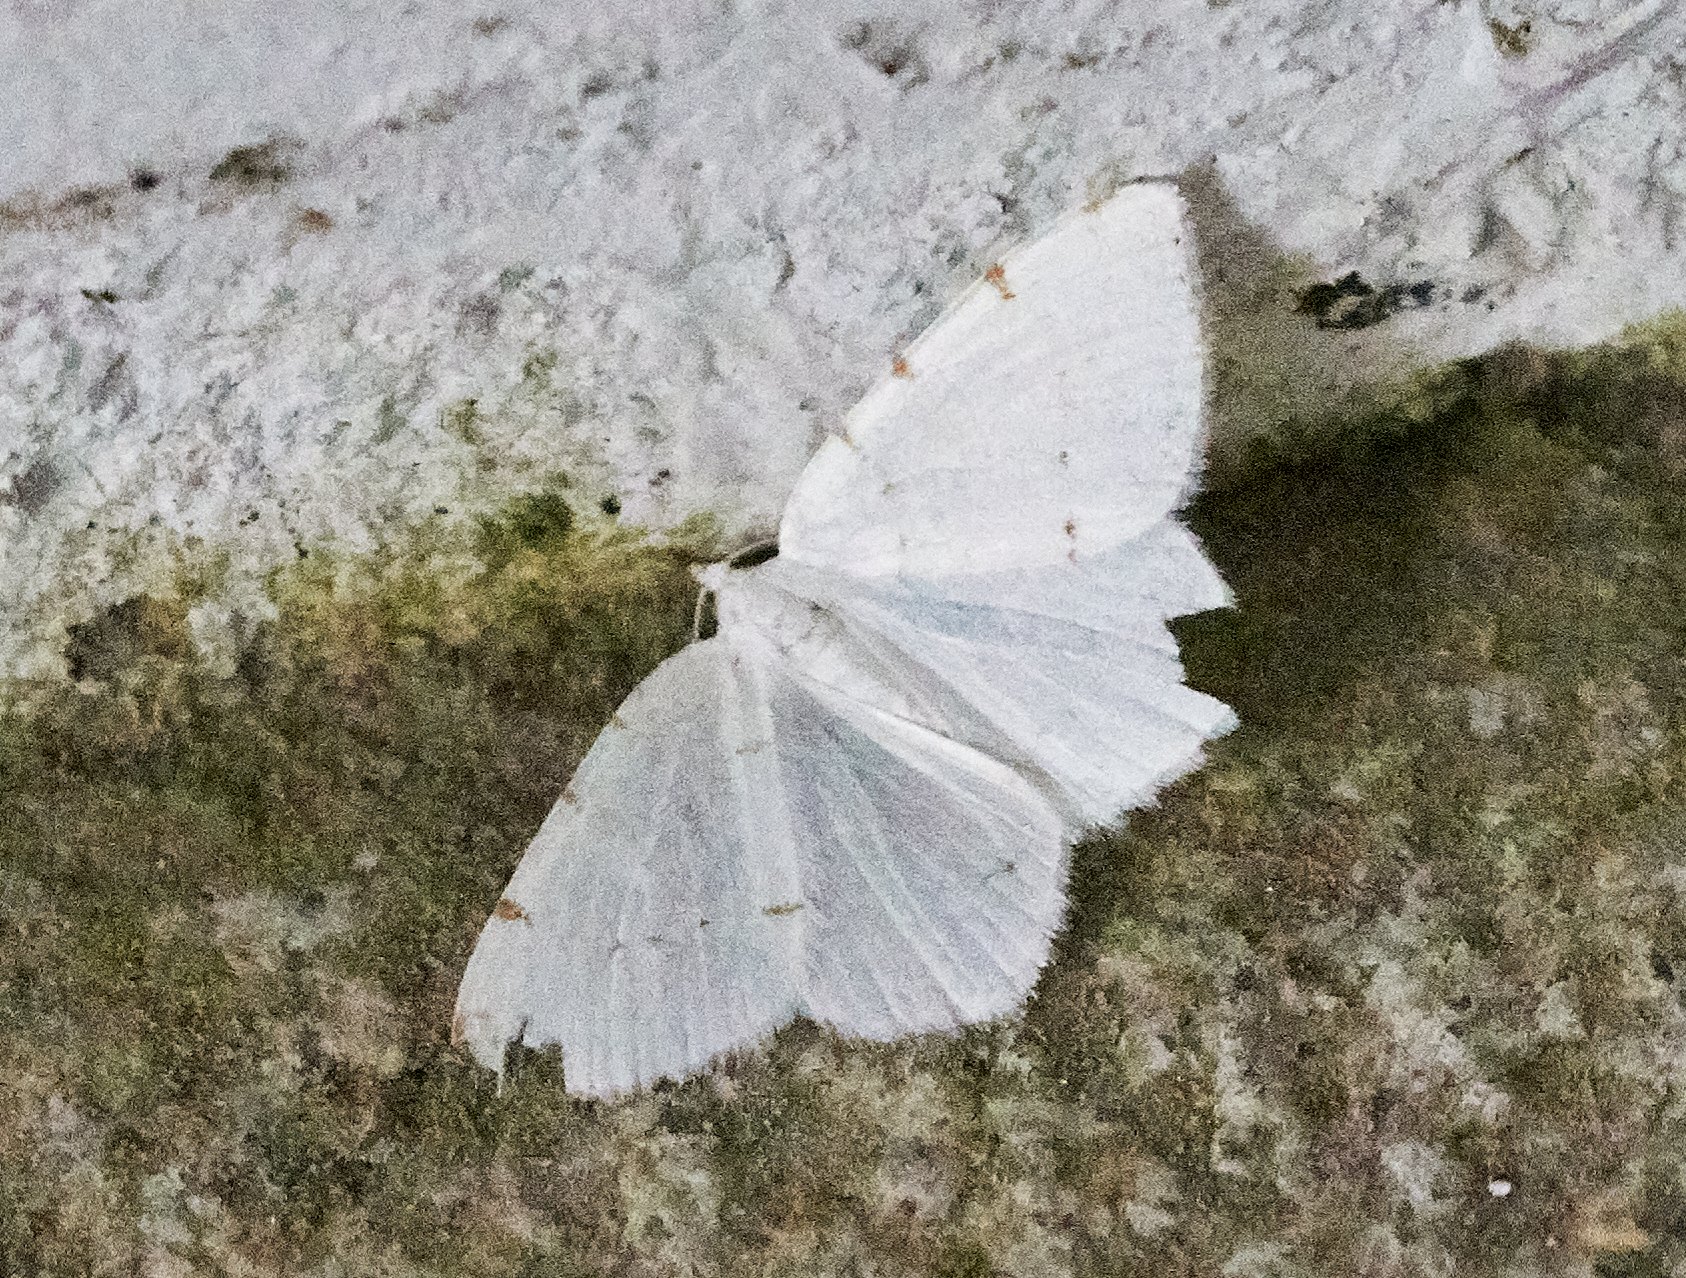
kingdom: Animalia
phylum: Arthropoda
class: Insecta
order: Lepidoptera
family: Geometridae
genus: Macaria
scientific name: Macaria pustularia
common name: Lesser maple spanworm moth
